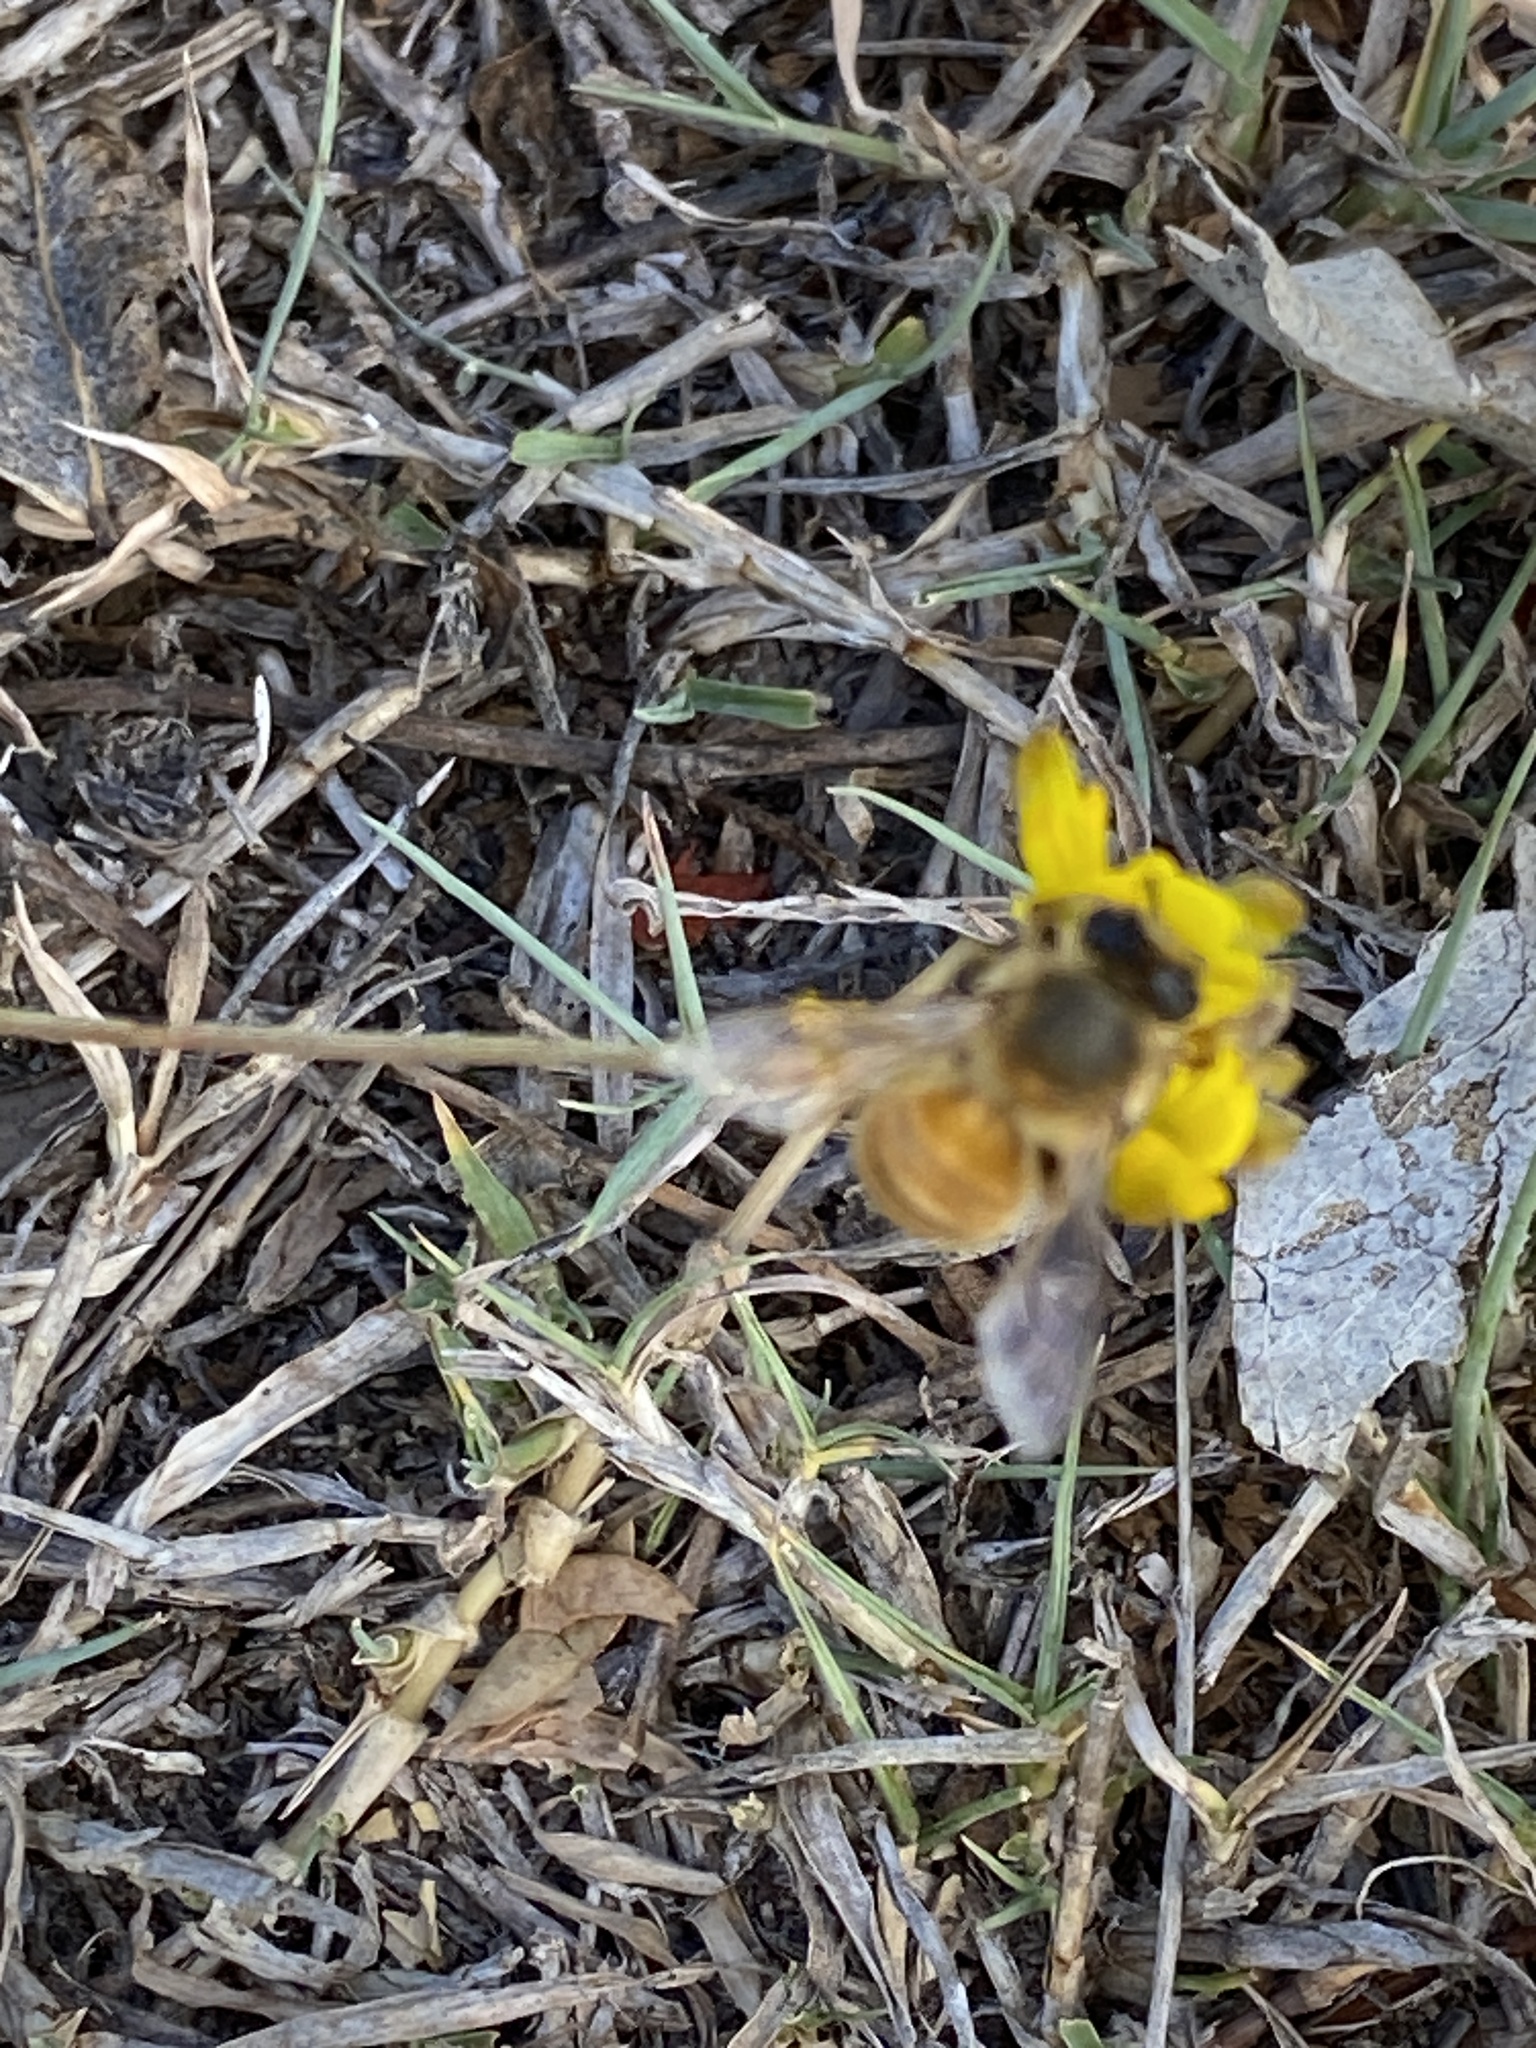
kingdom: Animalia
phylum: Arthropoda
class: Insecta
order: Hymenoptera
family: Apidae
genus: Apis
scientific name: Apis mellifera
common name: Honey bee
